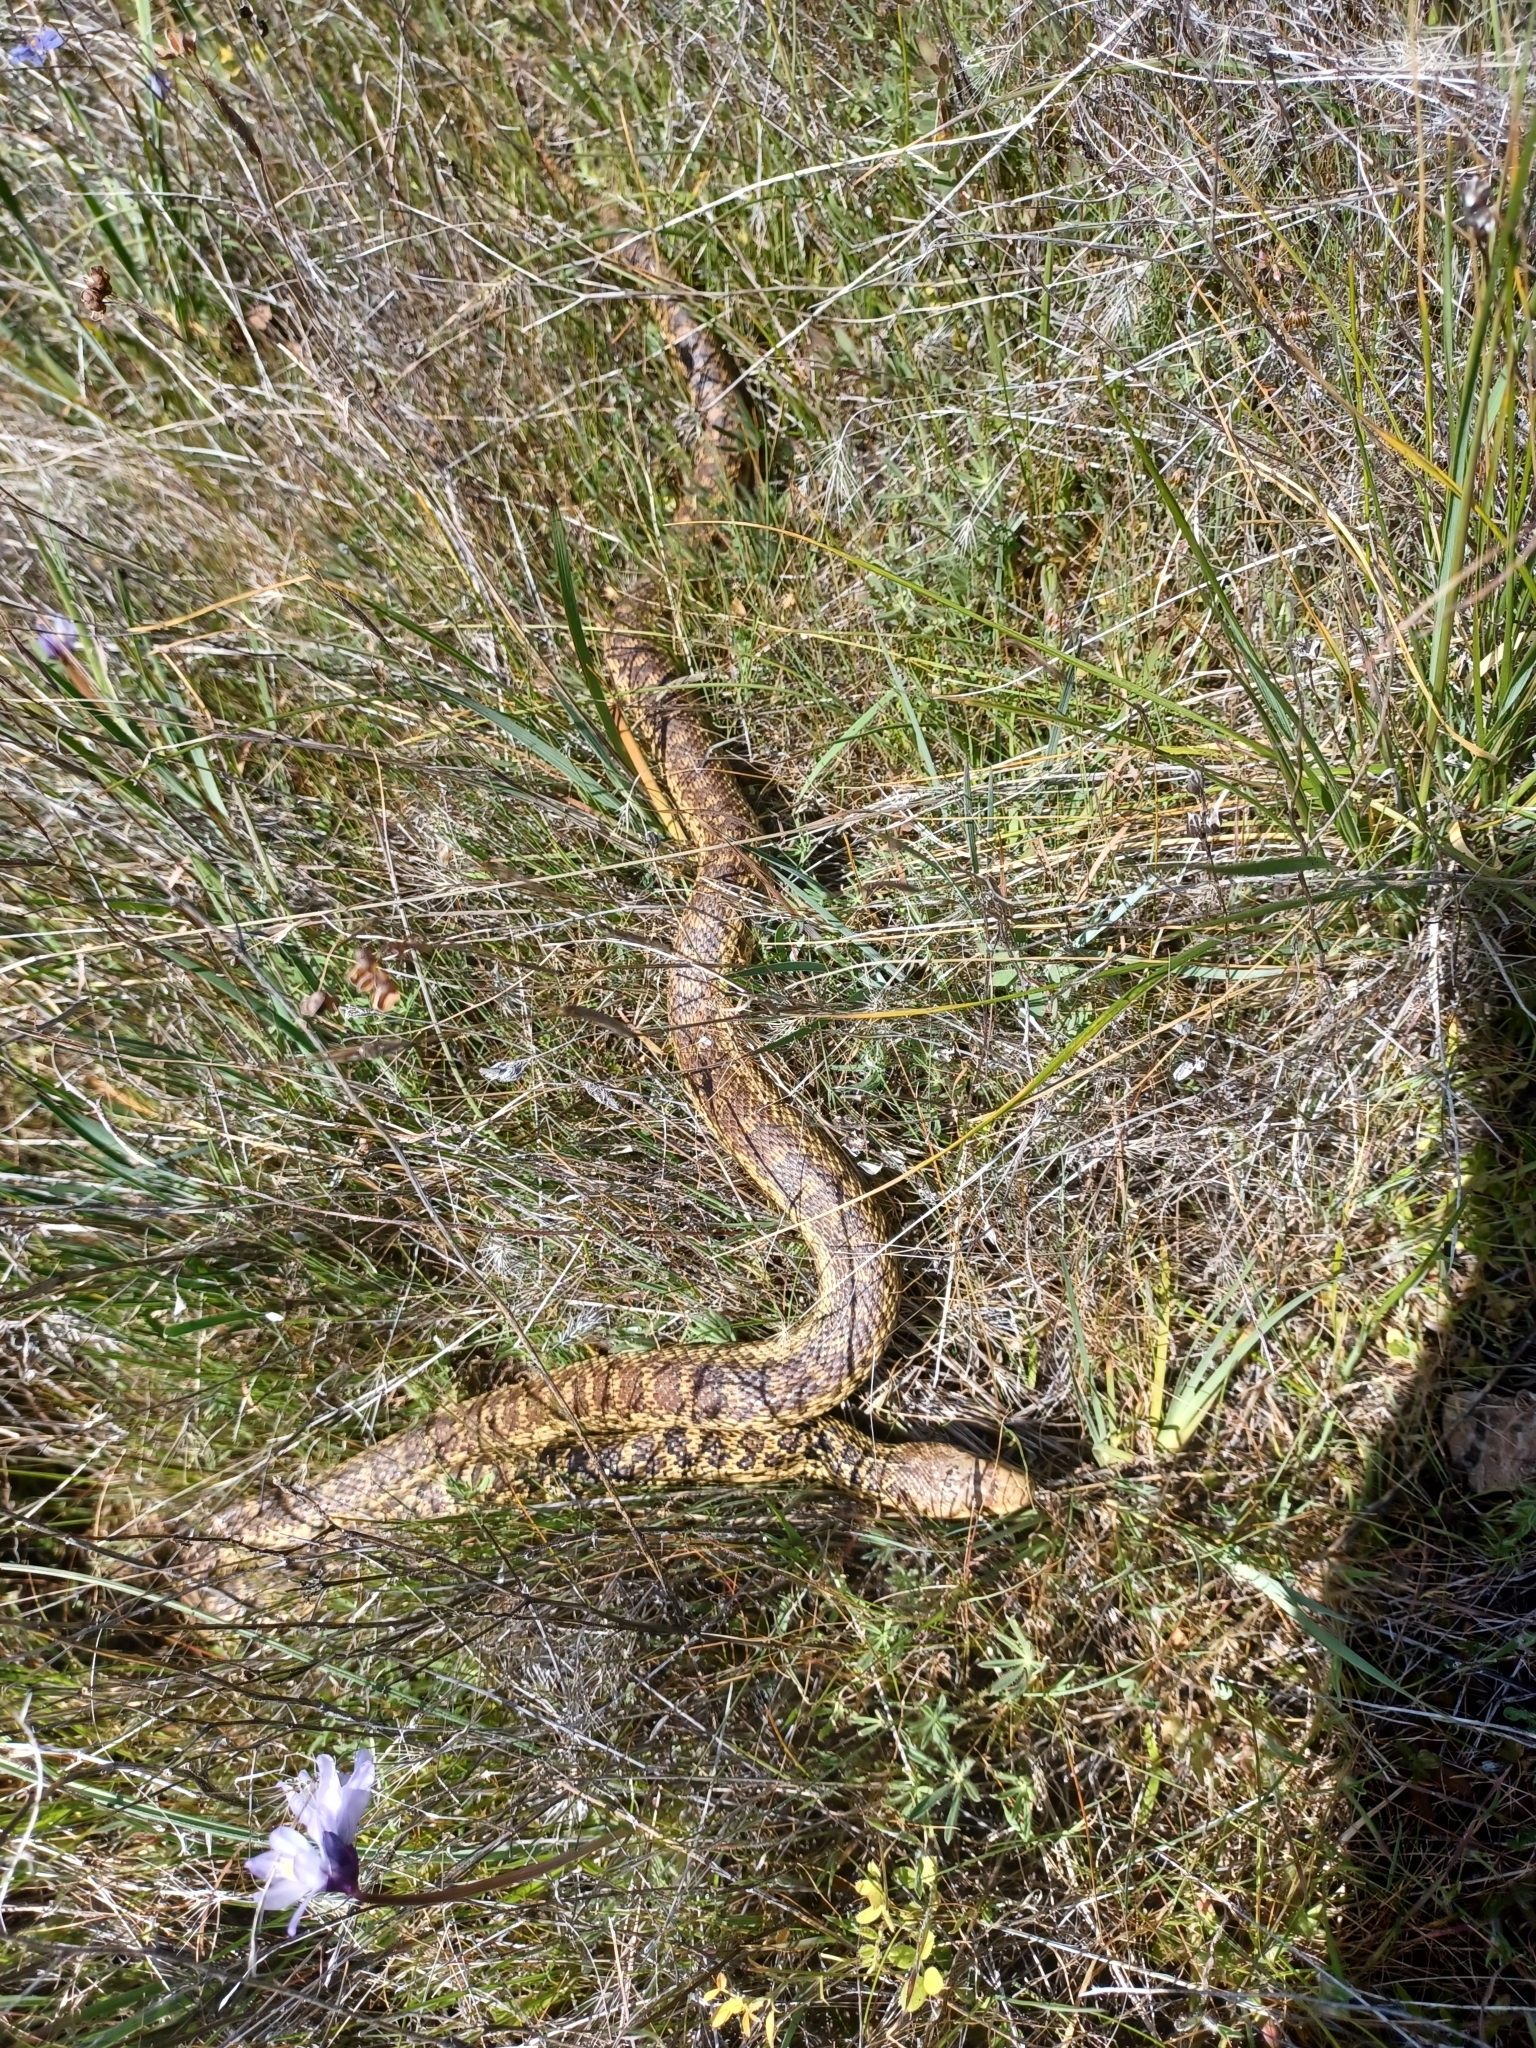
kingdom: Animalia
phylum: Chordata
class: Squamata
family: Colubridae
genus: Pituophis
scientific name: Pituophis catenifer
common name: Gopher snake
